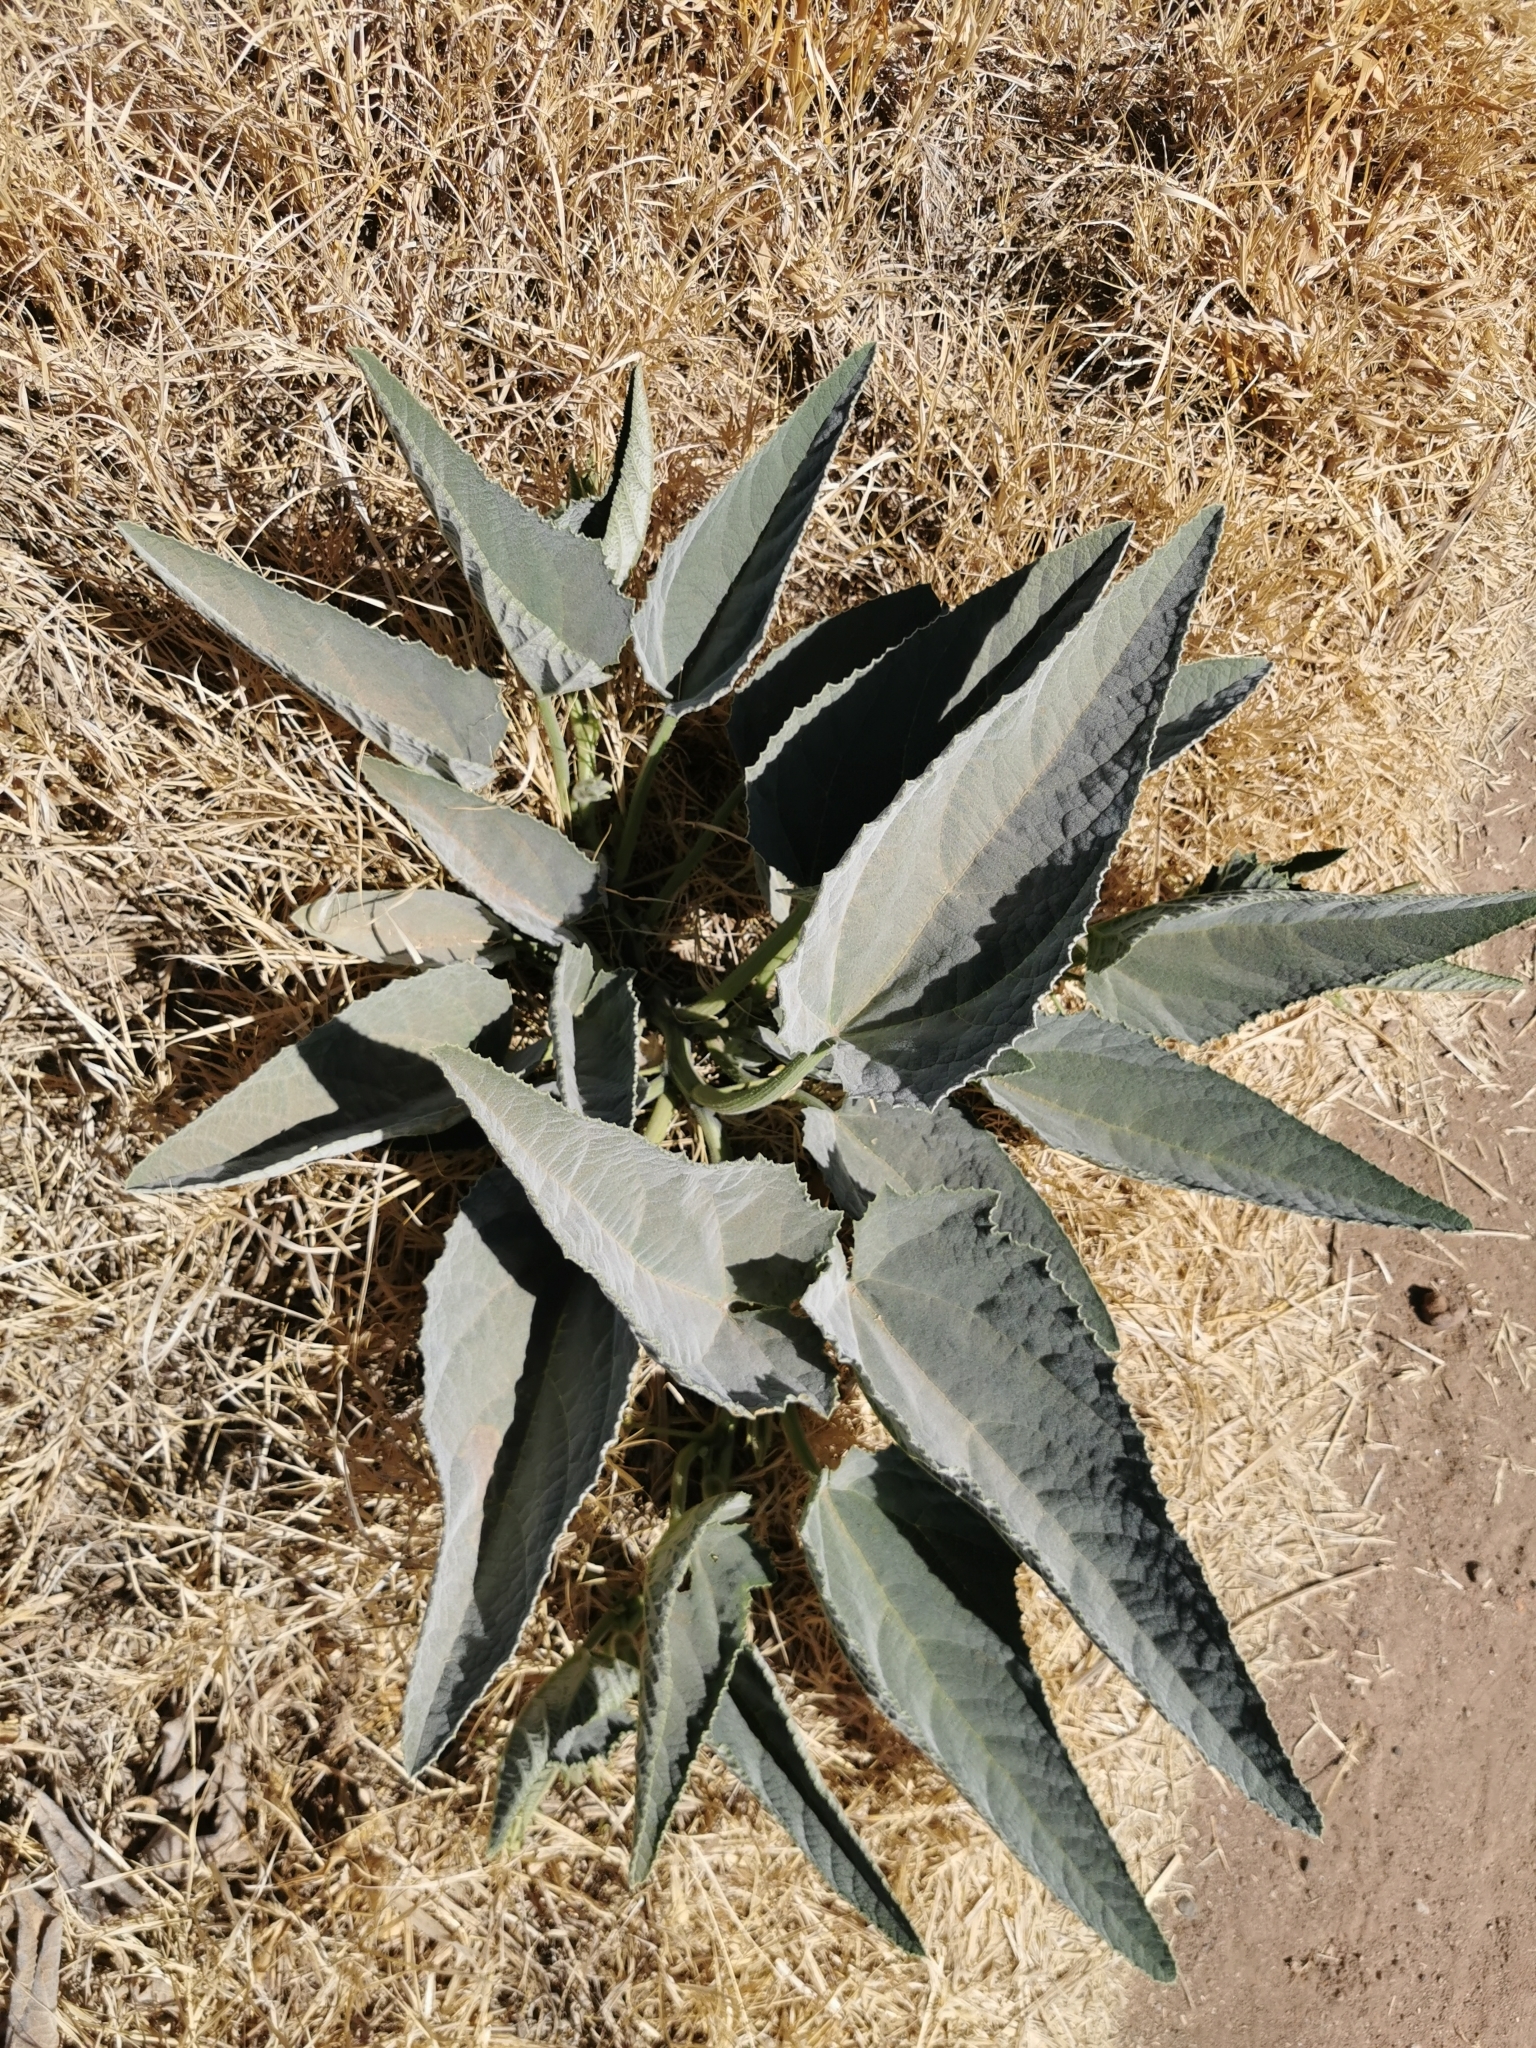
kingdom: Plantae
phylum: Tracheophyta
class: Magnoliopsida
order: Cucurbitales
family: Cucurbitaceae
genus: Cucurbita
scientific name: Cucurbita foetidissima
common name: Buffalo gourd
